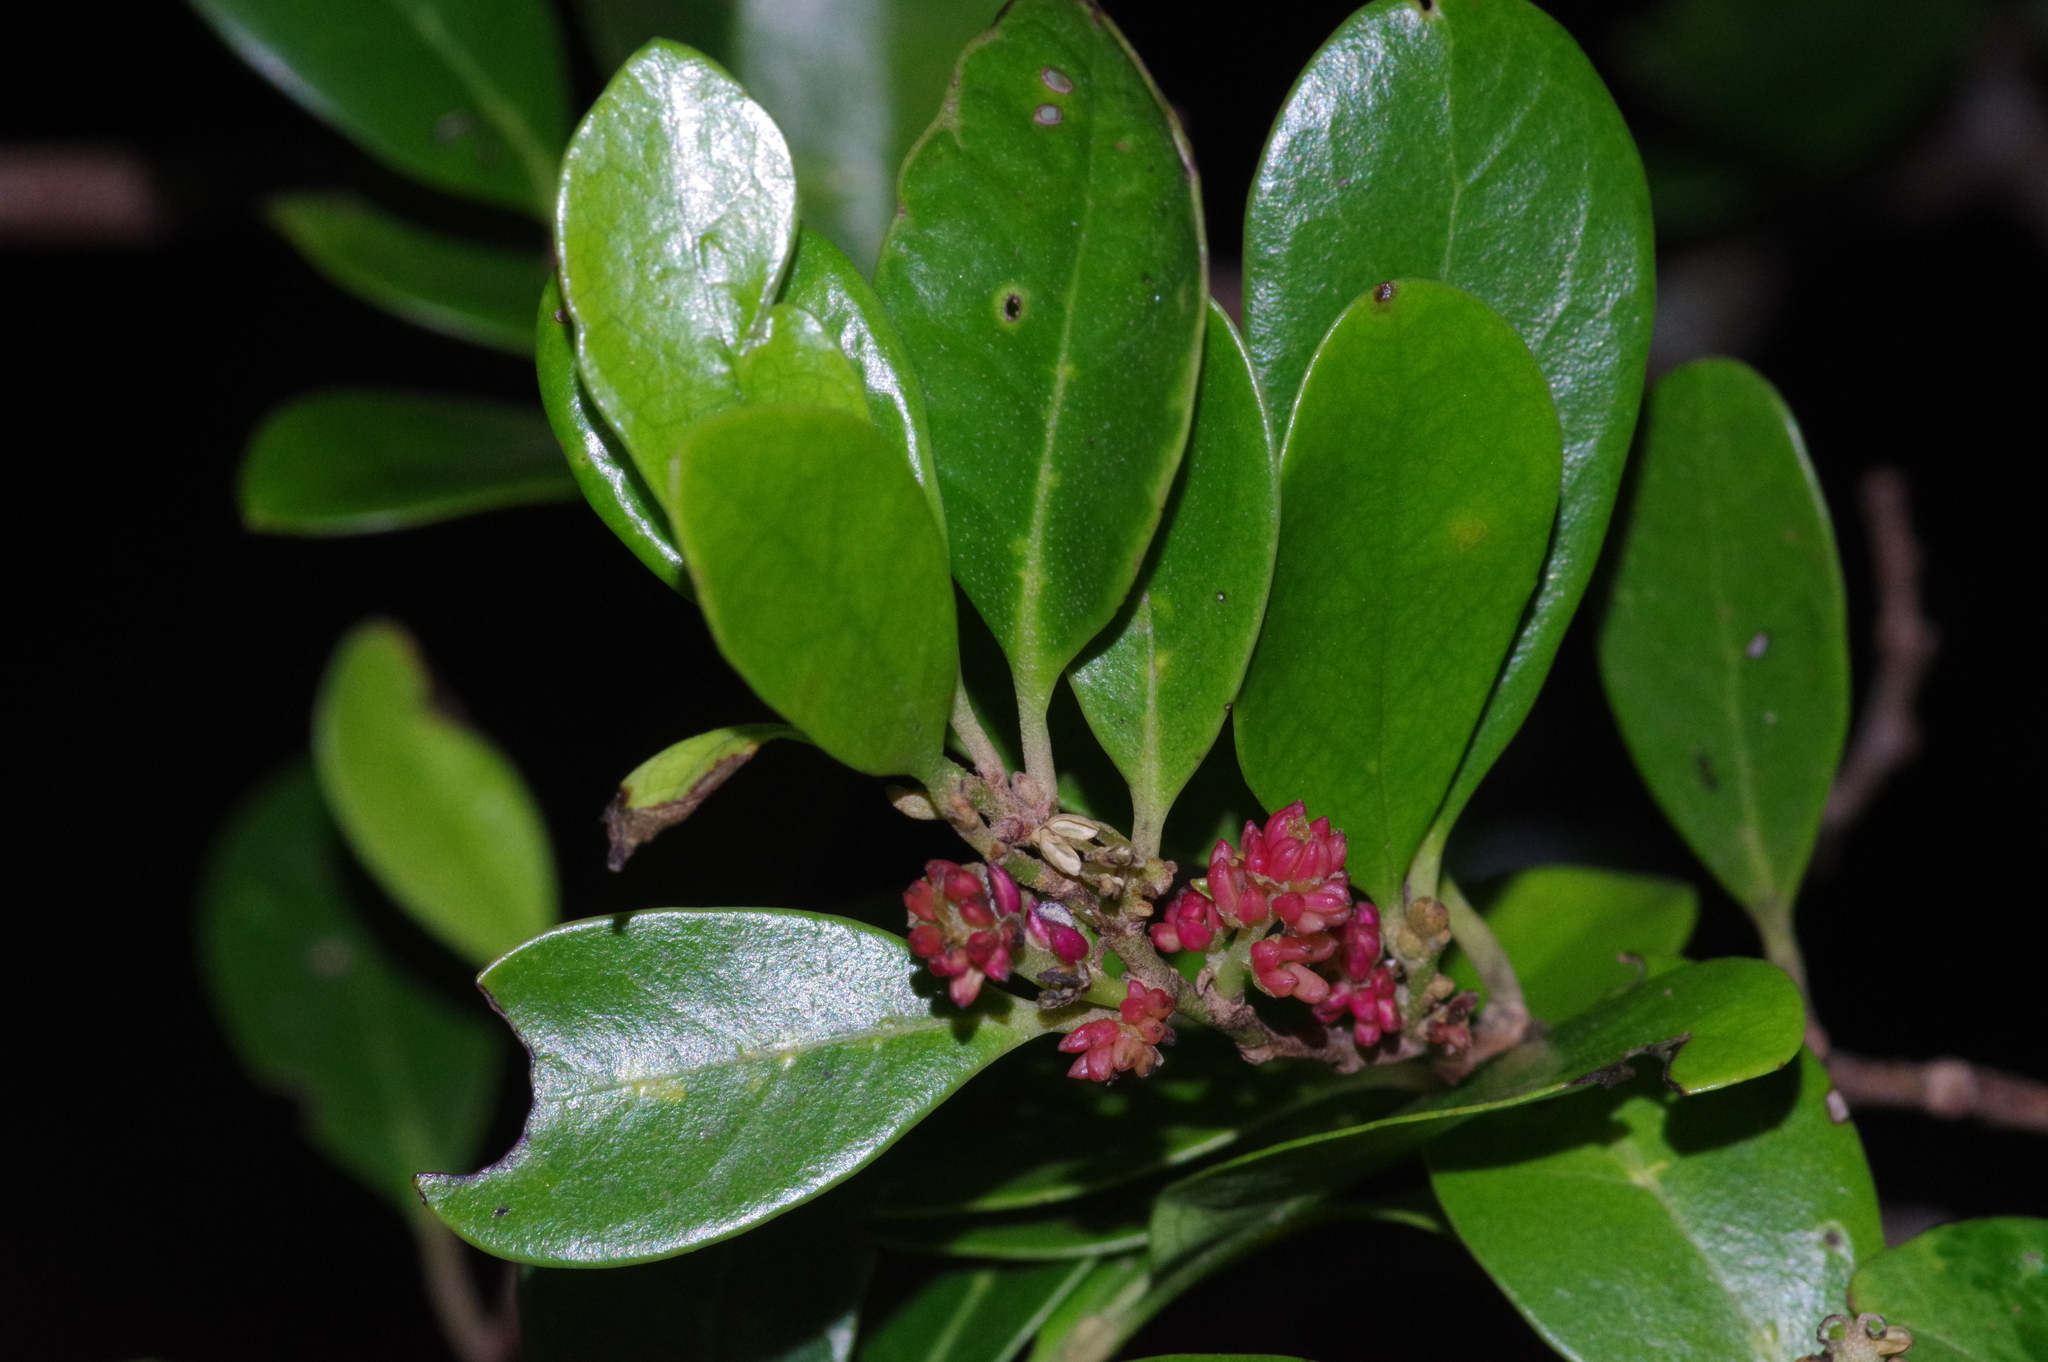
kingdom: Plantae
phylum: Tracheophyta
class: Magnoliopsida
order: Saxifragales
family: Hamamelidaceae
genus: Distylium
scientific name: Distylium racemosum
